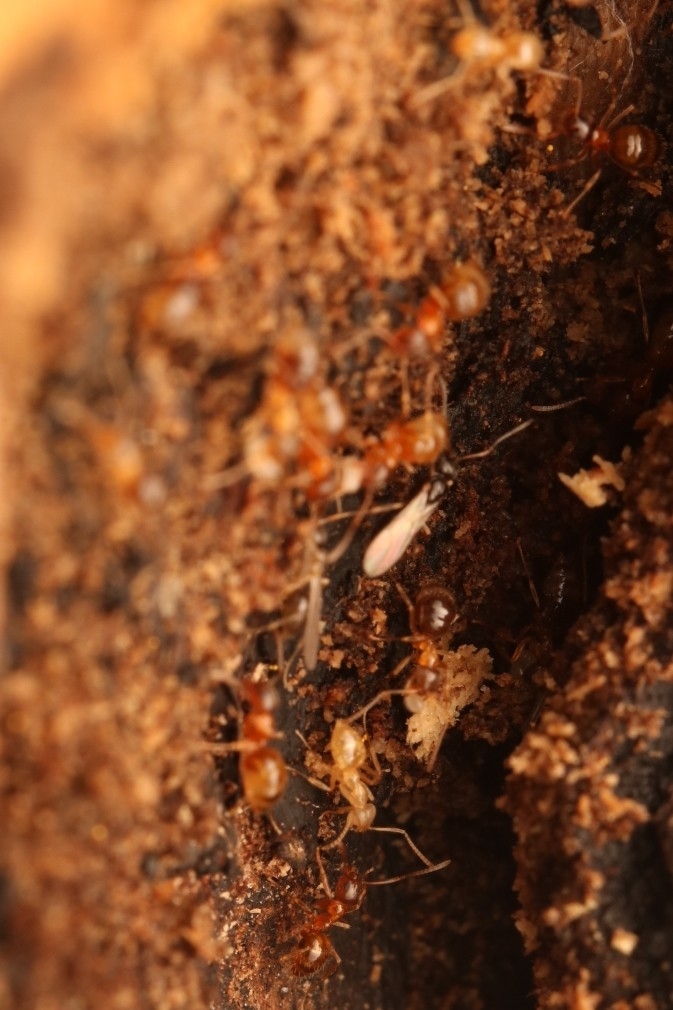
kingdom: Animalia
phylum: Arthropoda
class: Insecta
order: Hymenoptera
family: Formicidae
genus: Paratrechina
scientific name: Paratrechina flavipes
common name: Eastern asian formicine ant
